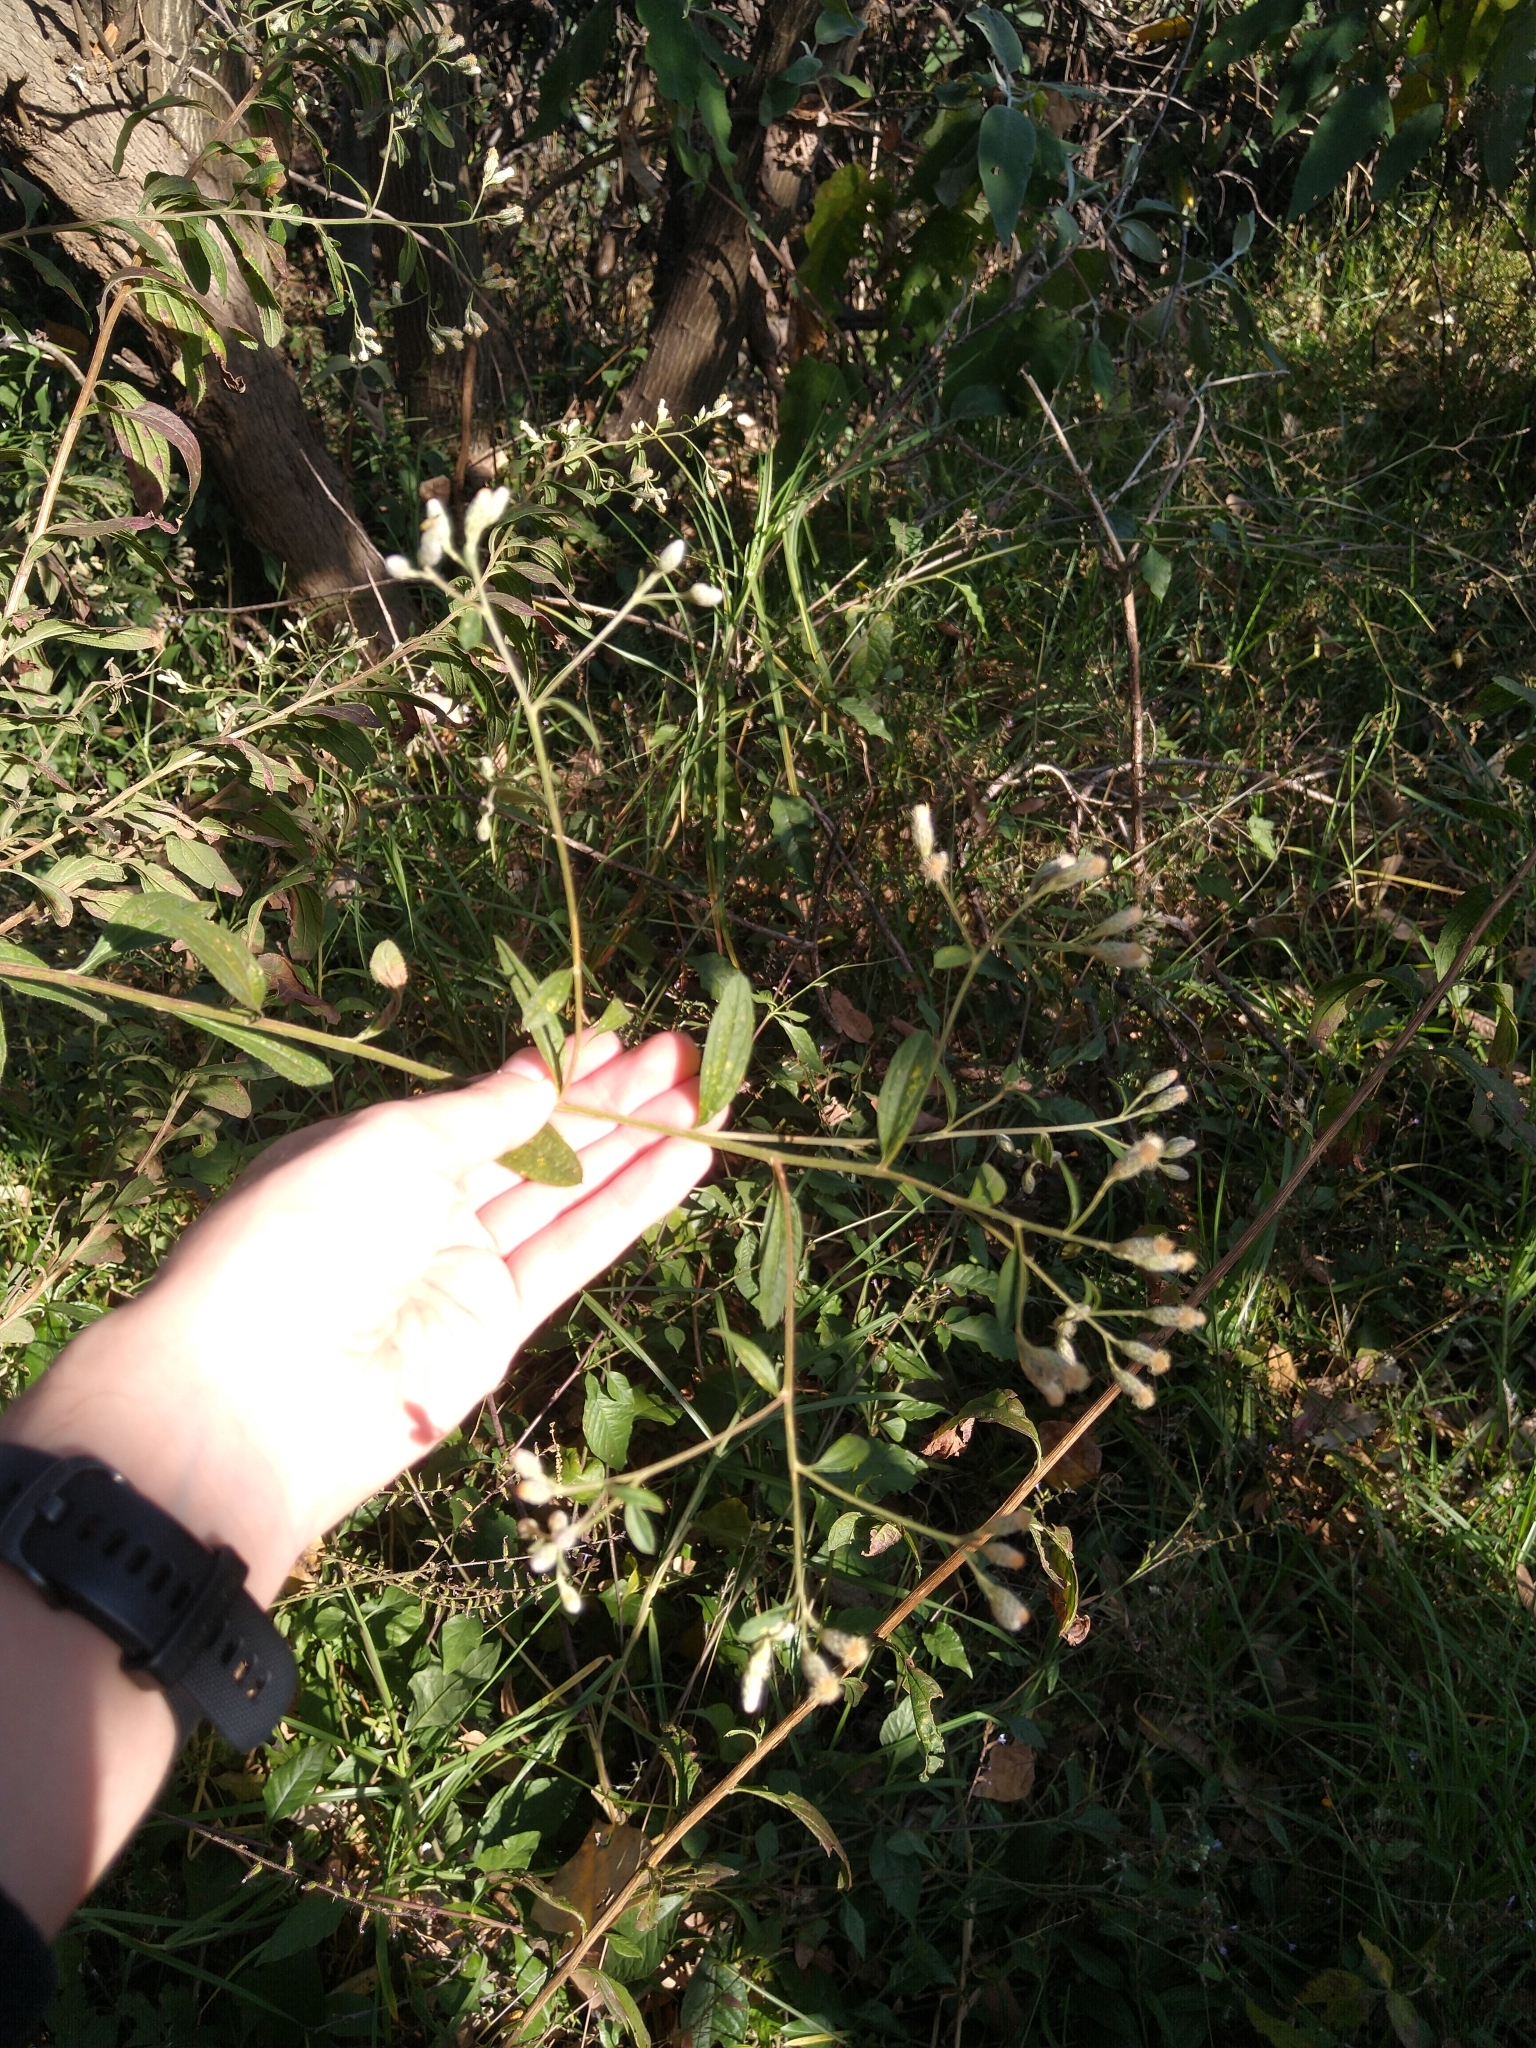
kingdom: Plantae
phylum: Tracheophyta
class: Magnoliopsida
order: Asterales
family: Asteraceae
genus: Baccharis
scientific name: Baccharis sordescens
